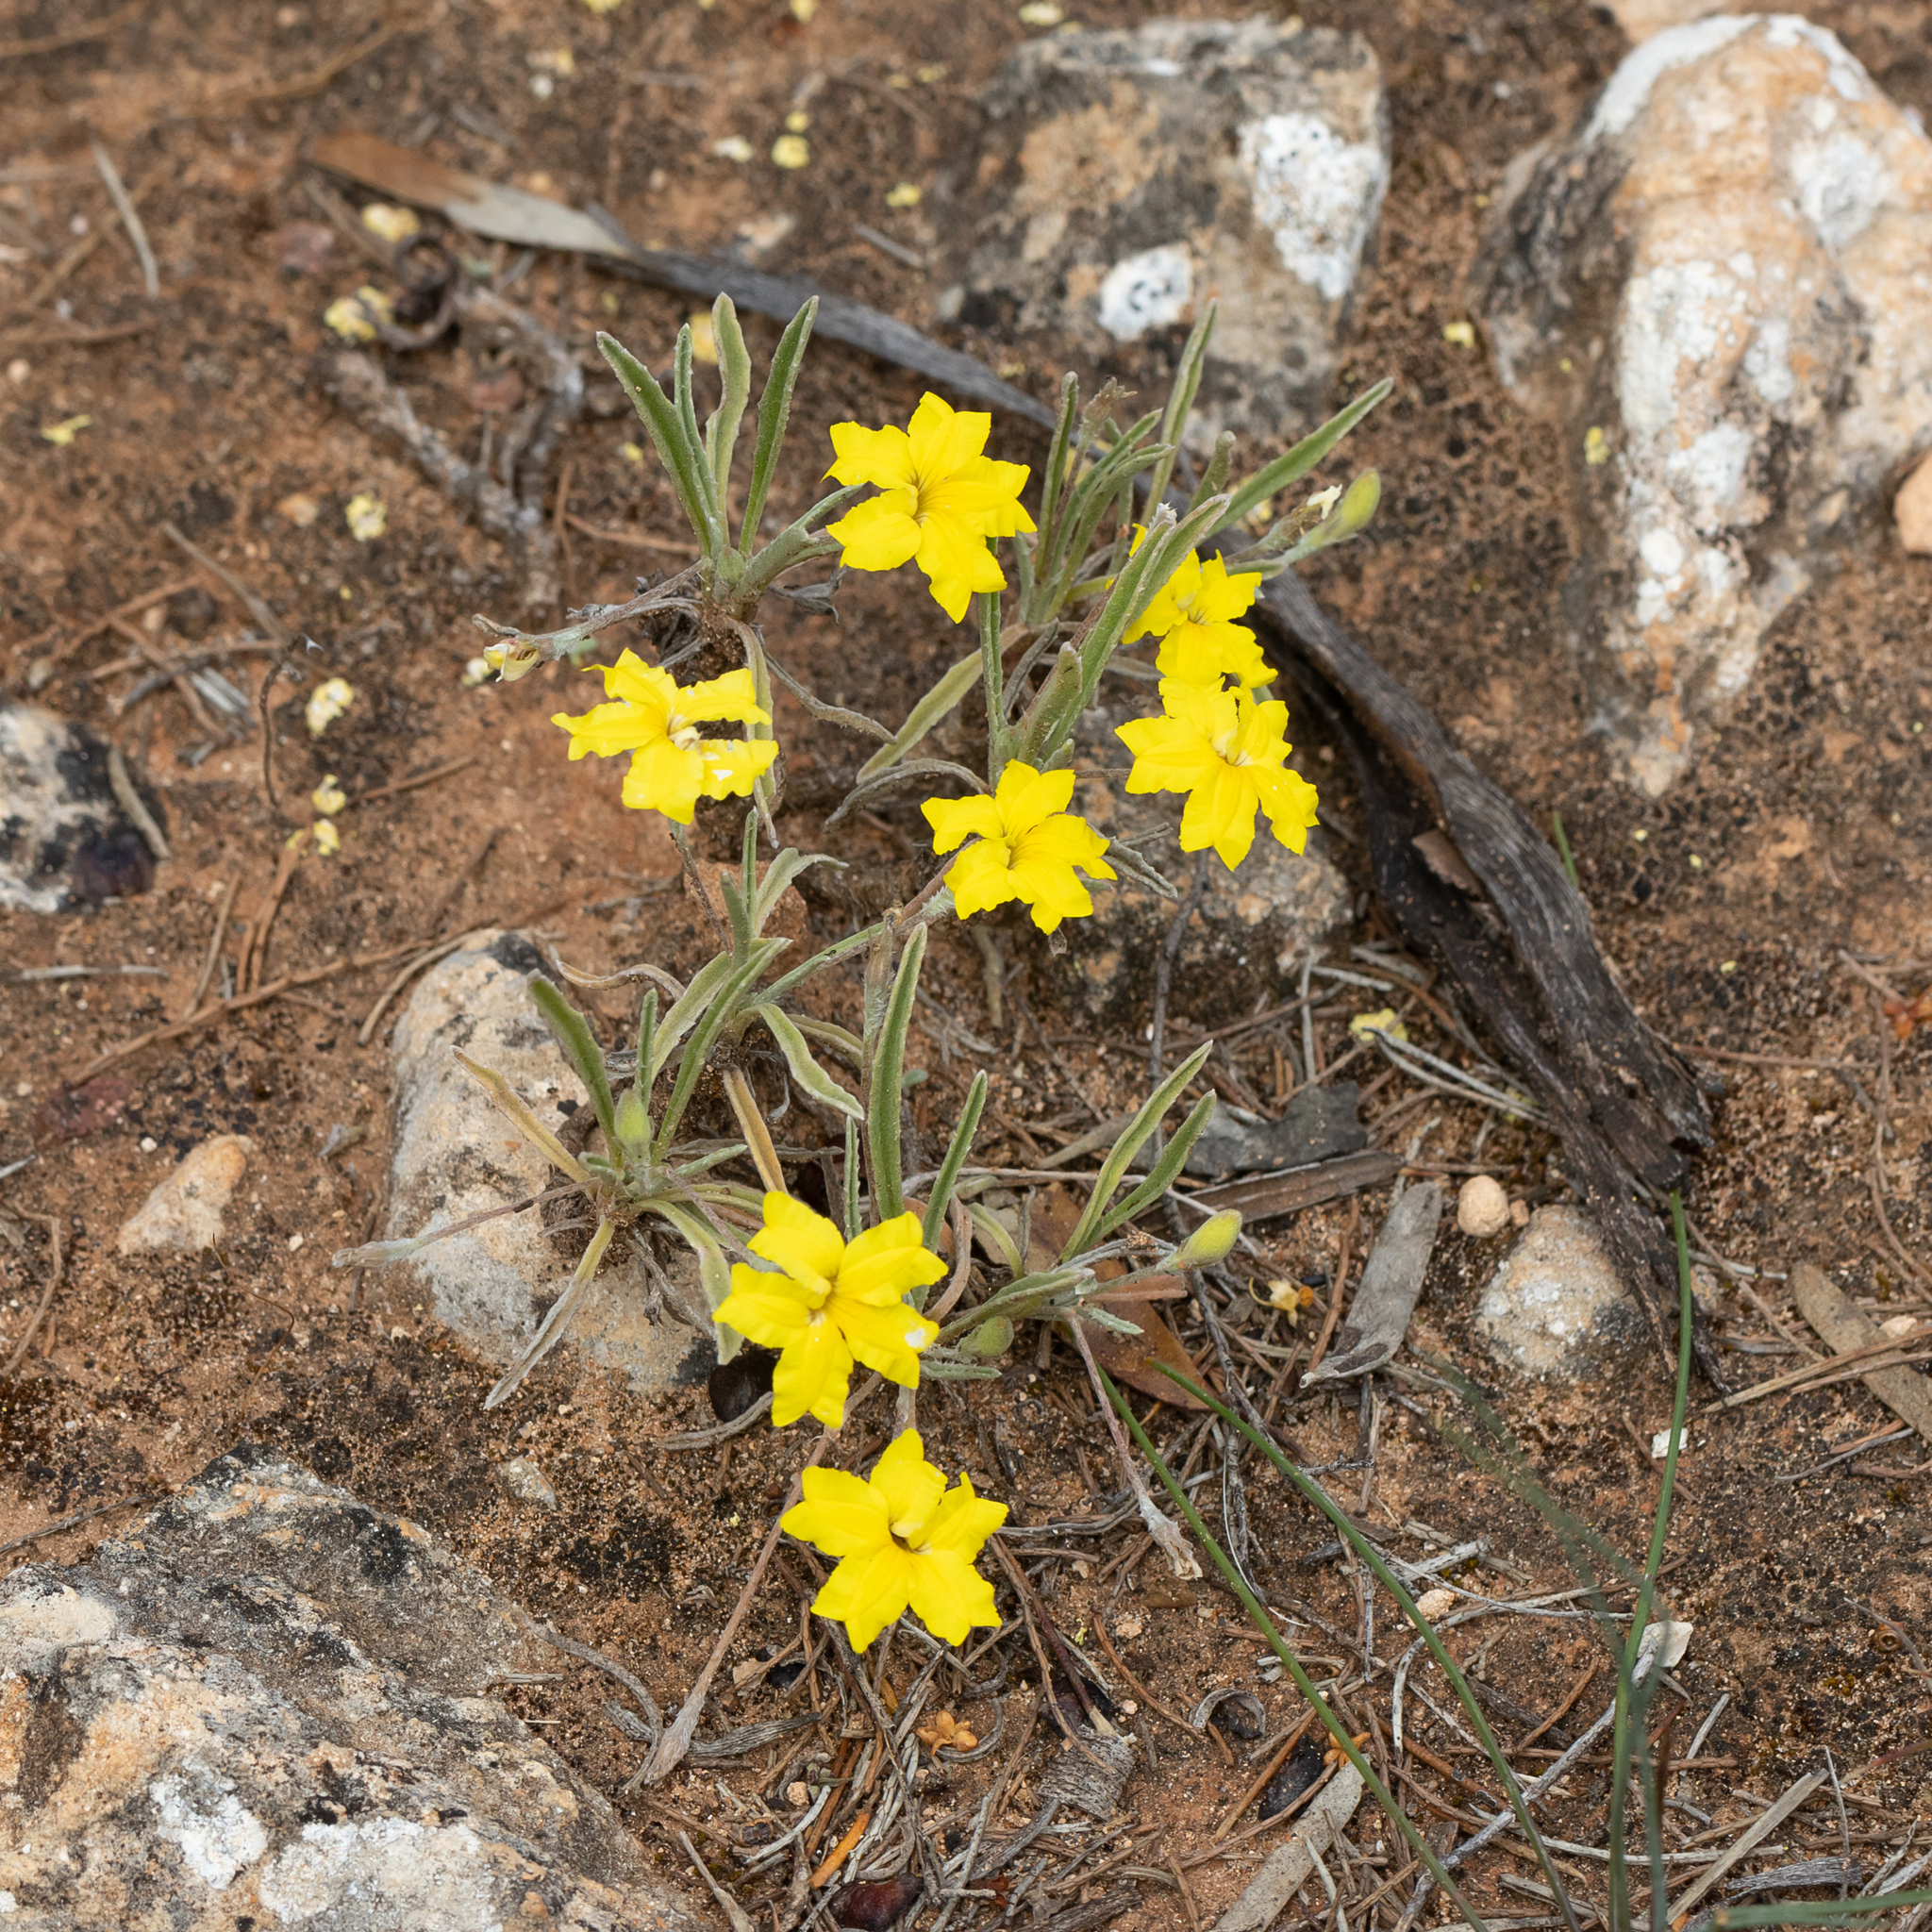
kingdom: Plantae
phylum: Tracheophyta
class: Magnoliopsida
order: Asterales
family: Goodeniaceae
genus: Goodenia
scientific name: Goodenia willisiana
